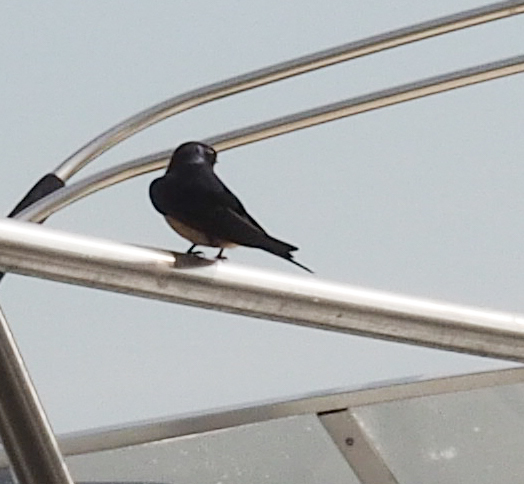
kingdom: Animalia
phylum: Chordata
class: Aves
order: Passeriformes
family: Hirundinidae
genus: Hirundo
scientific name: Hirundo rustica
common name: Barn swallow
